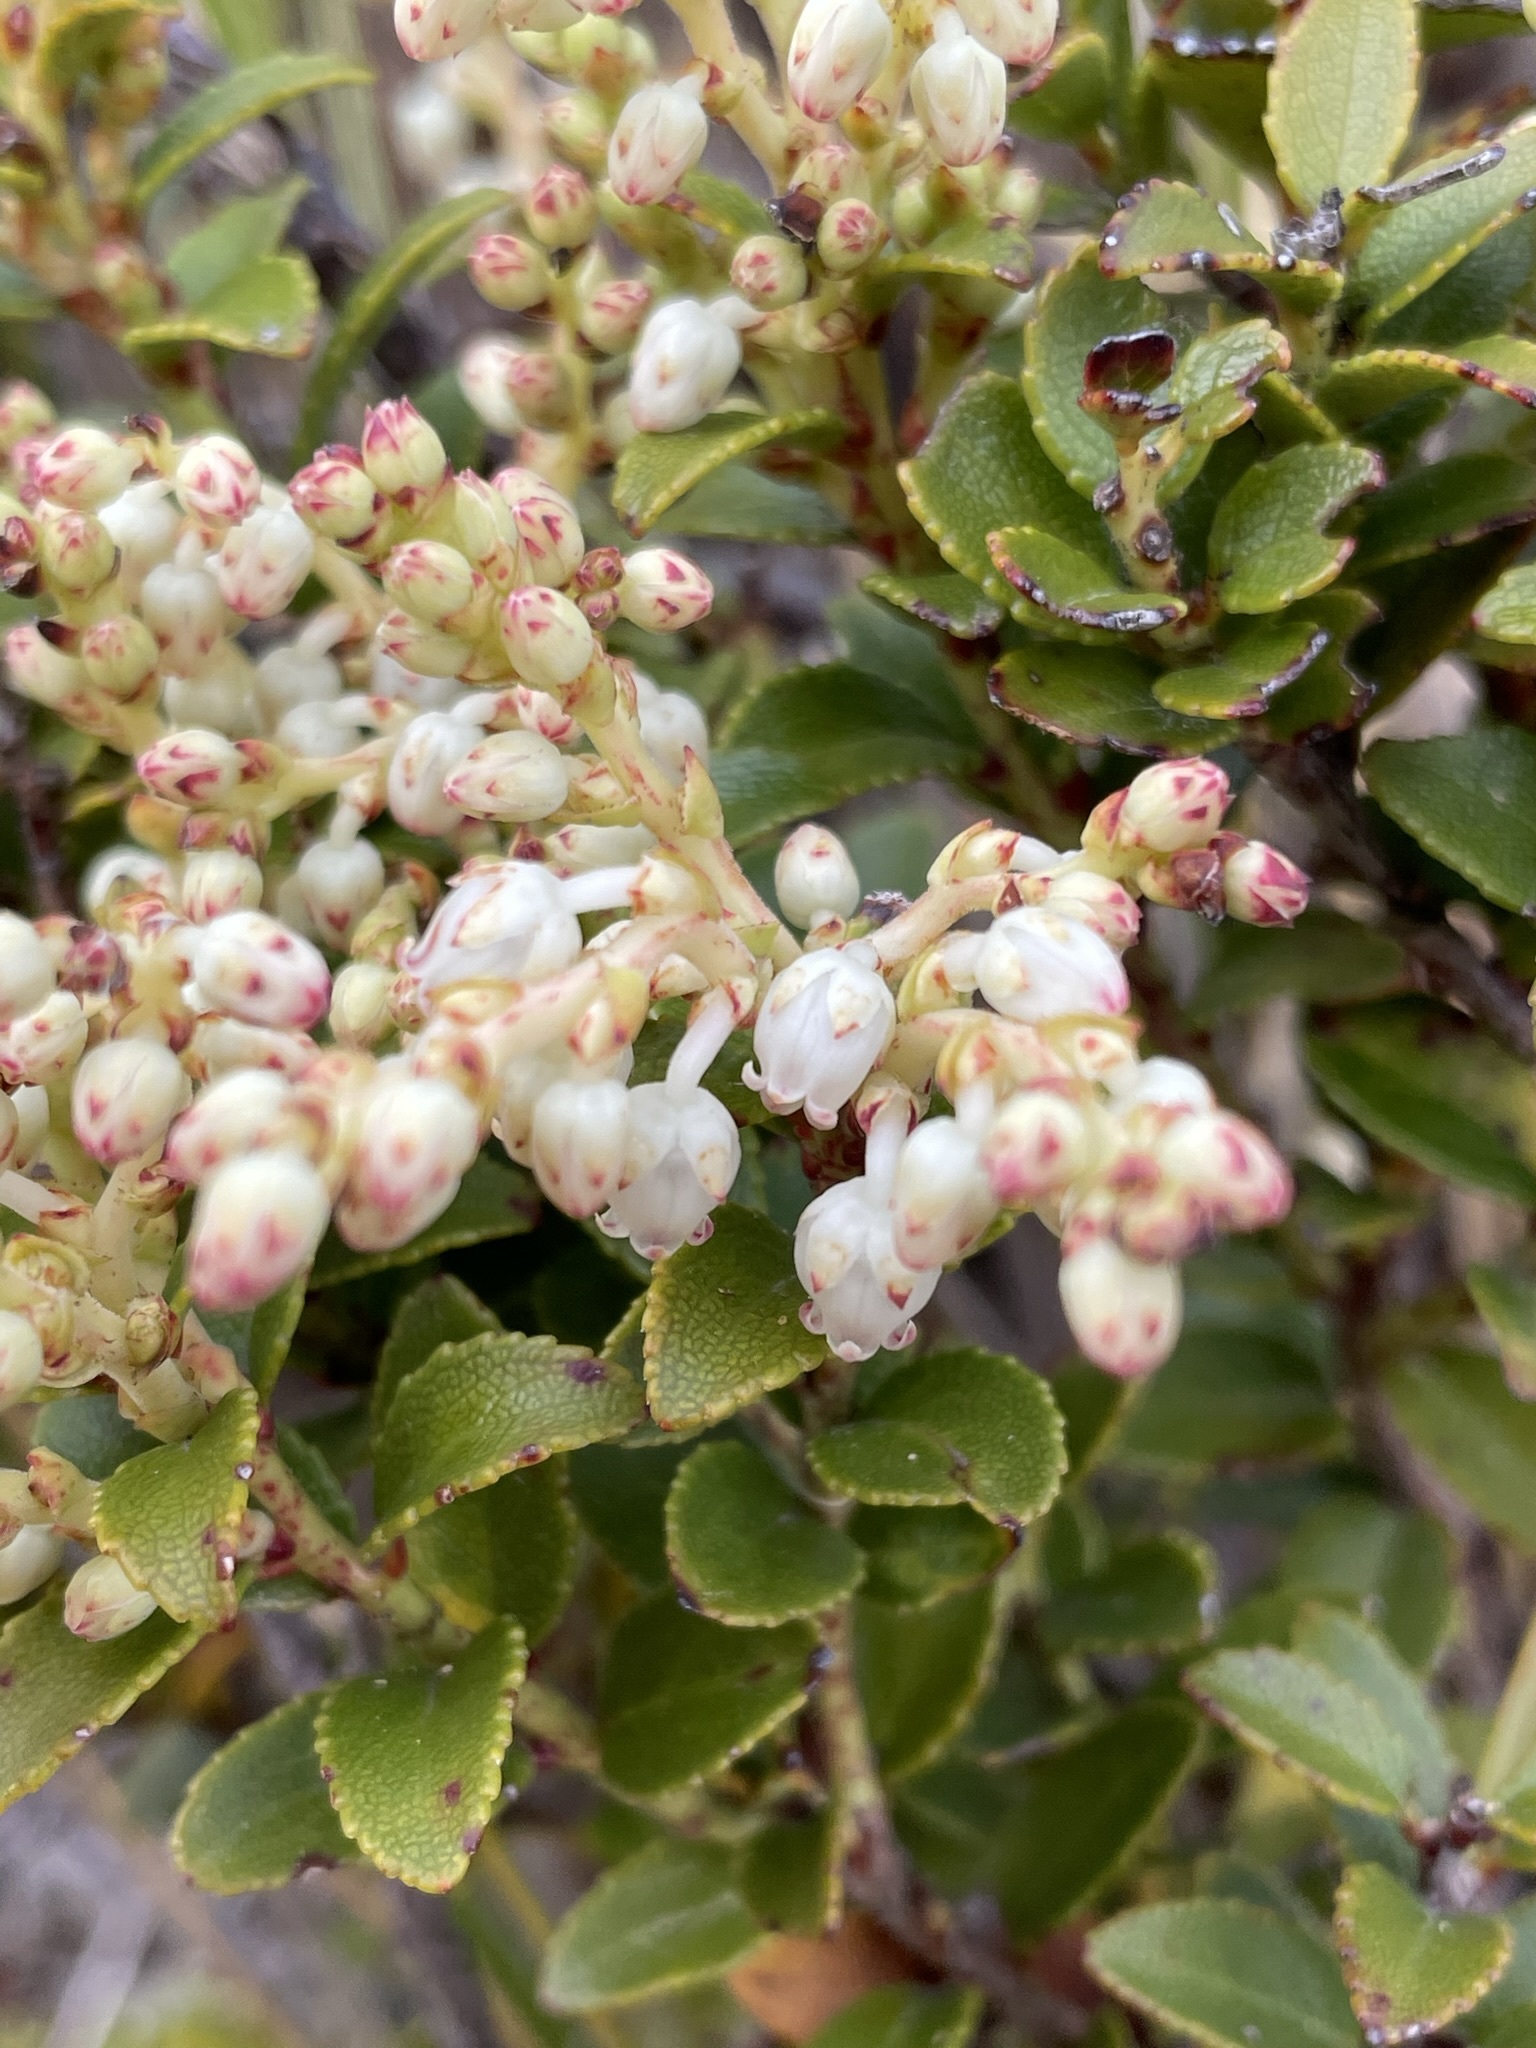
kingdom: Plantae
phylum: Tracheophyta
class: Magnoliopsida
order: Ericales
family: Ericaceae
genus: Gaultheria
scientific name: Gaultheria crassa
